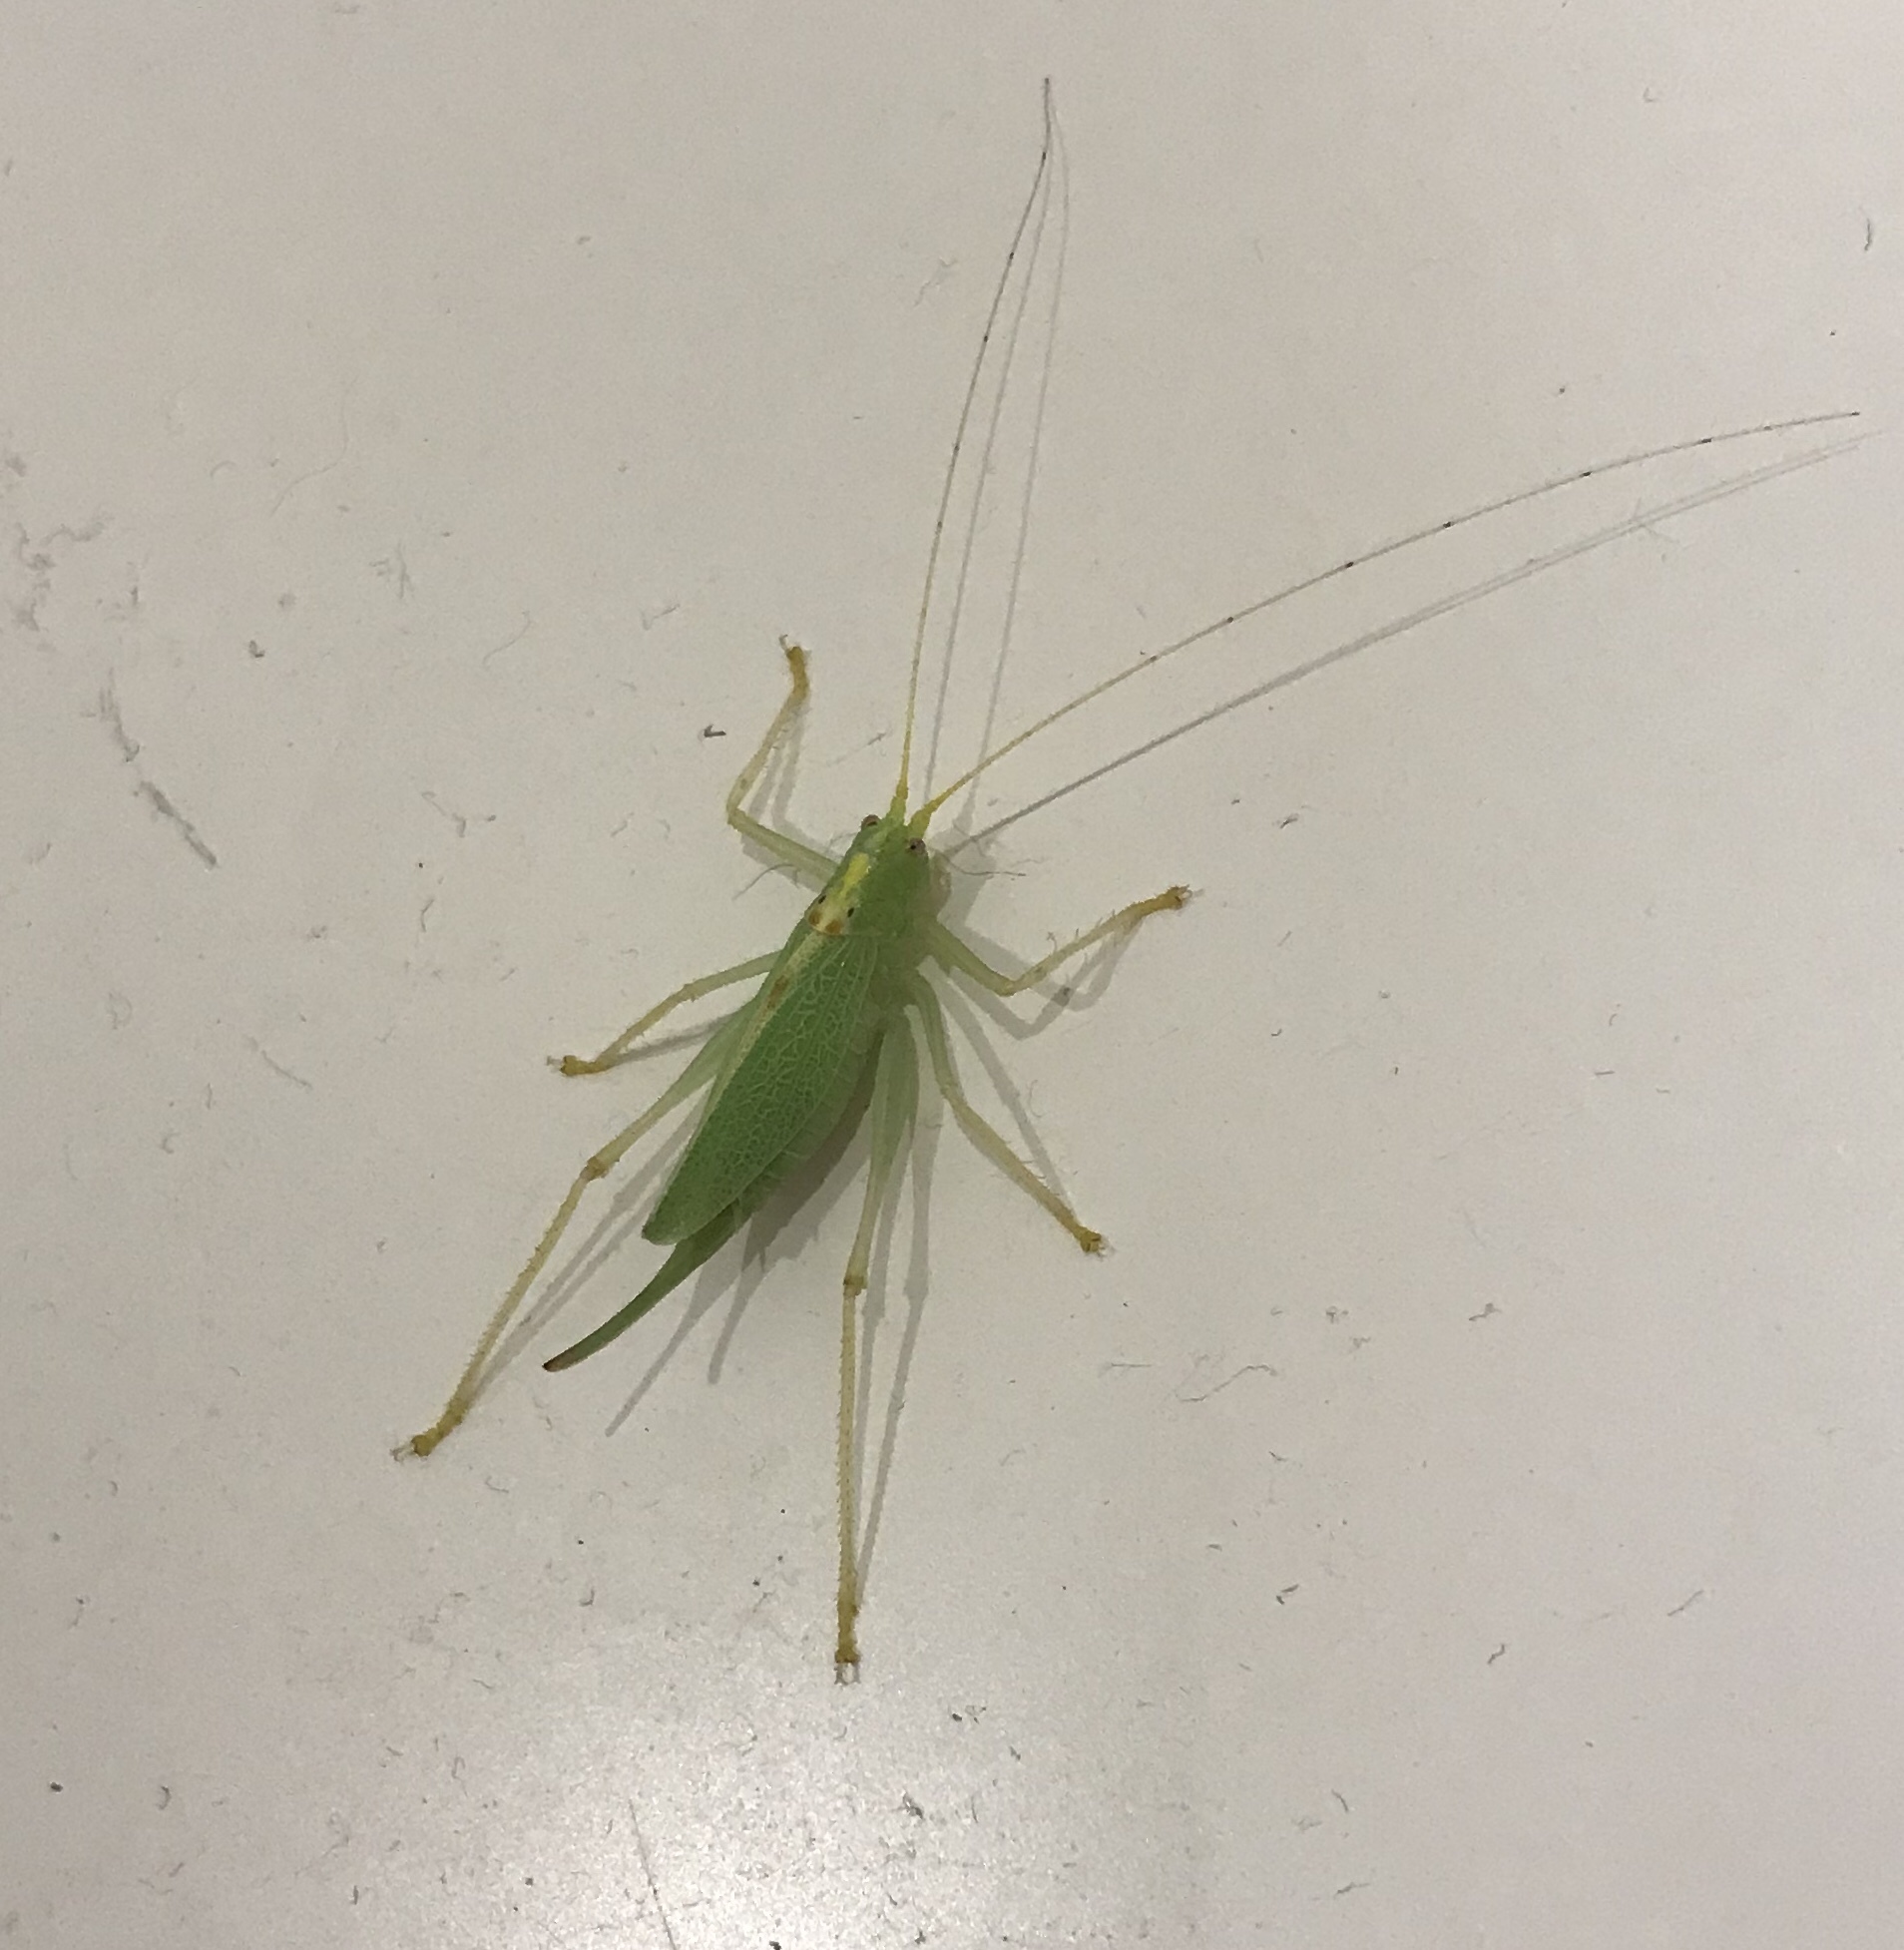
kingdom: Animalia
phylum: Arthropoda
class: Insecta
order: Orthoptera
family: Tettigoniidae
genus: Meconema
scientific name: Meconema thalassinum
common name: Oak bush-cricket
